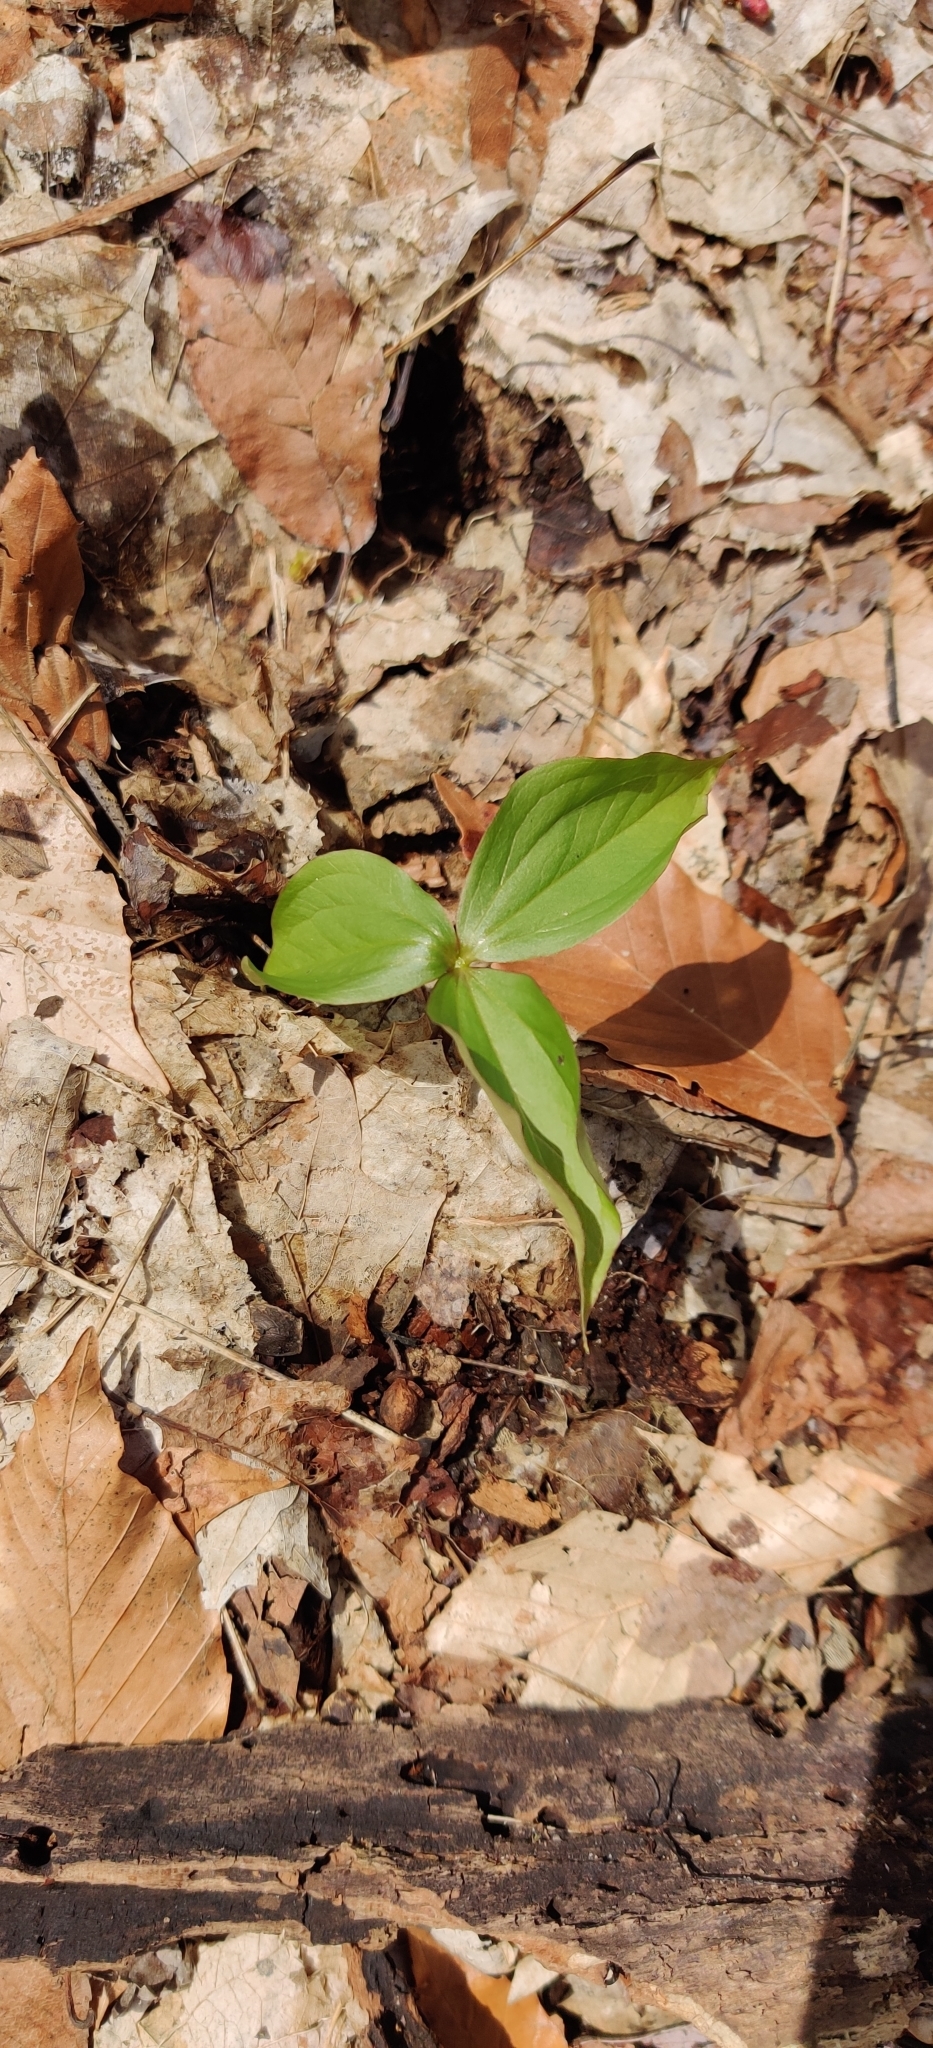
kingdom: Plantae
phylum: Tracheophyta
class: Liliopsida
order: Liliales
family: Melanthiaceae
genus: Trillium
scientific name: Trillium grandiflorum
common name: Great white trillium
